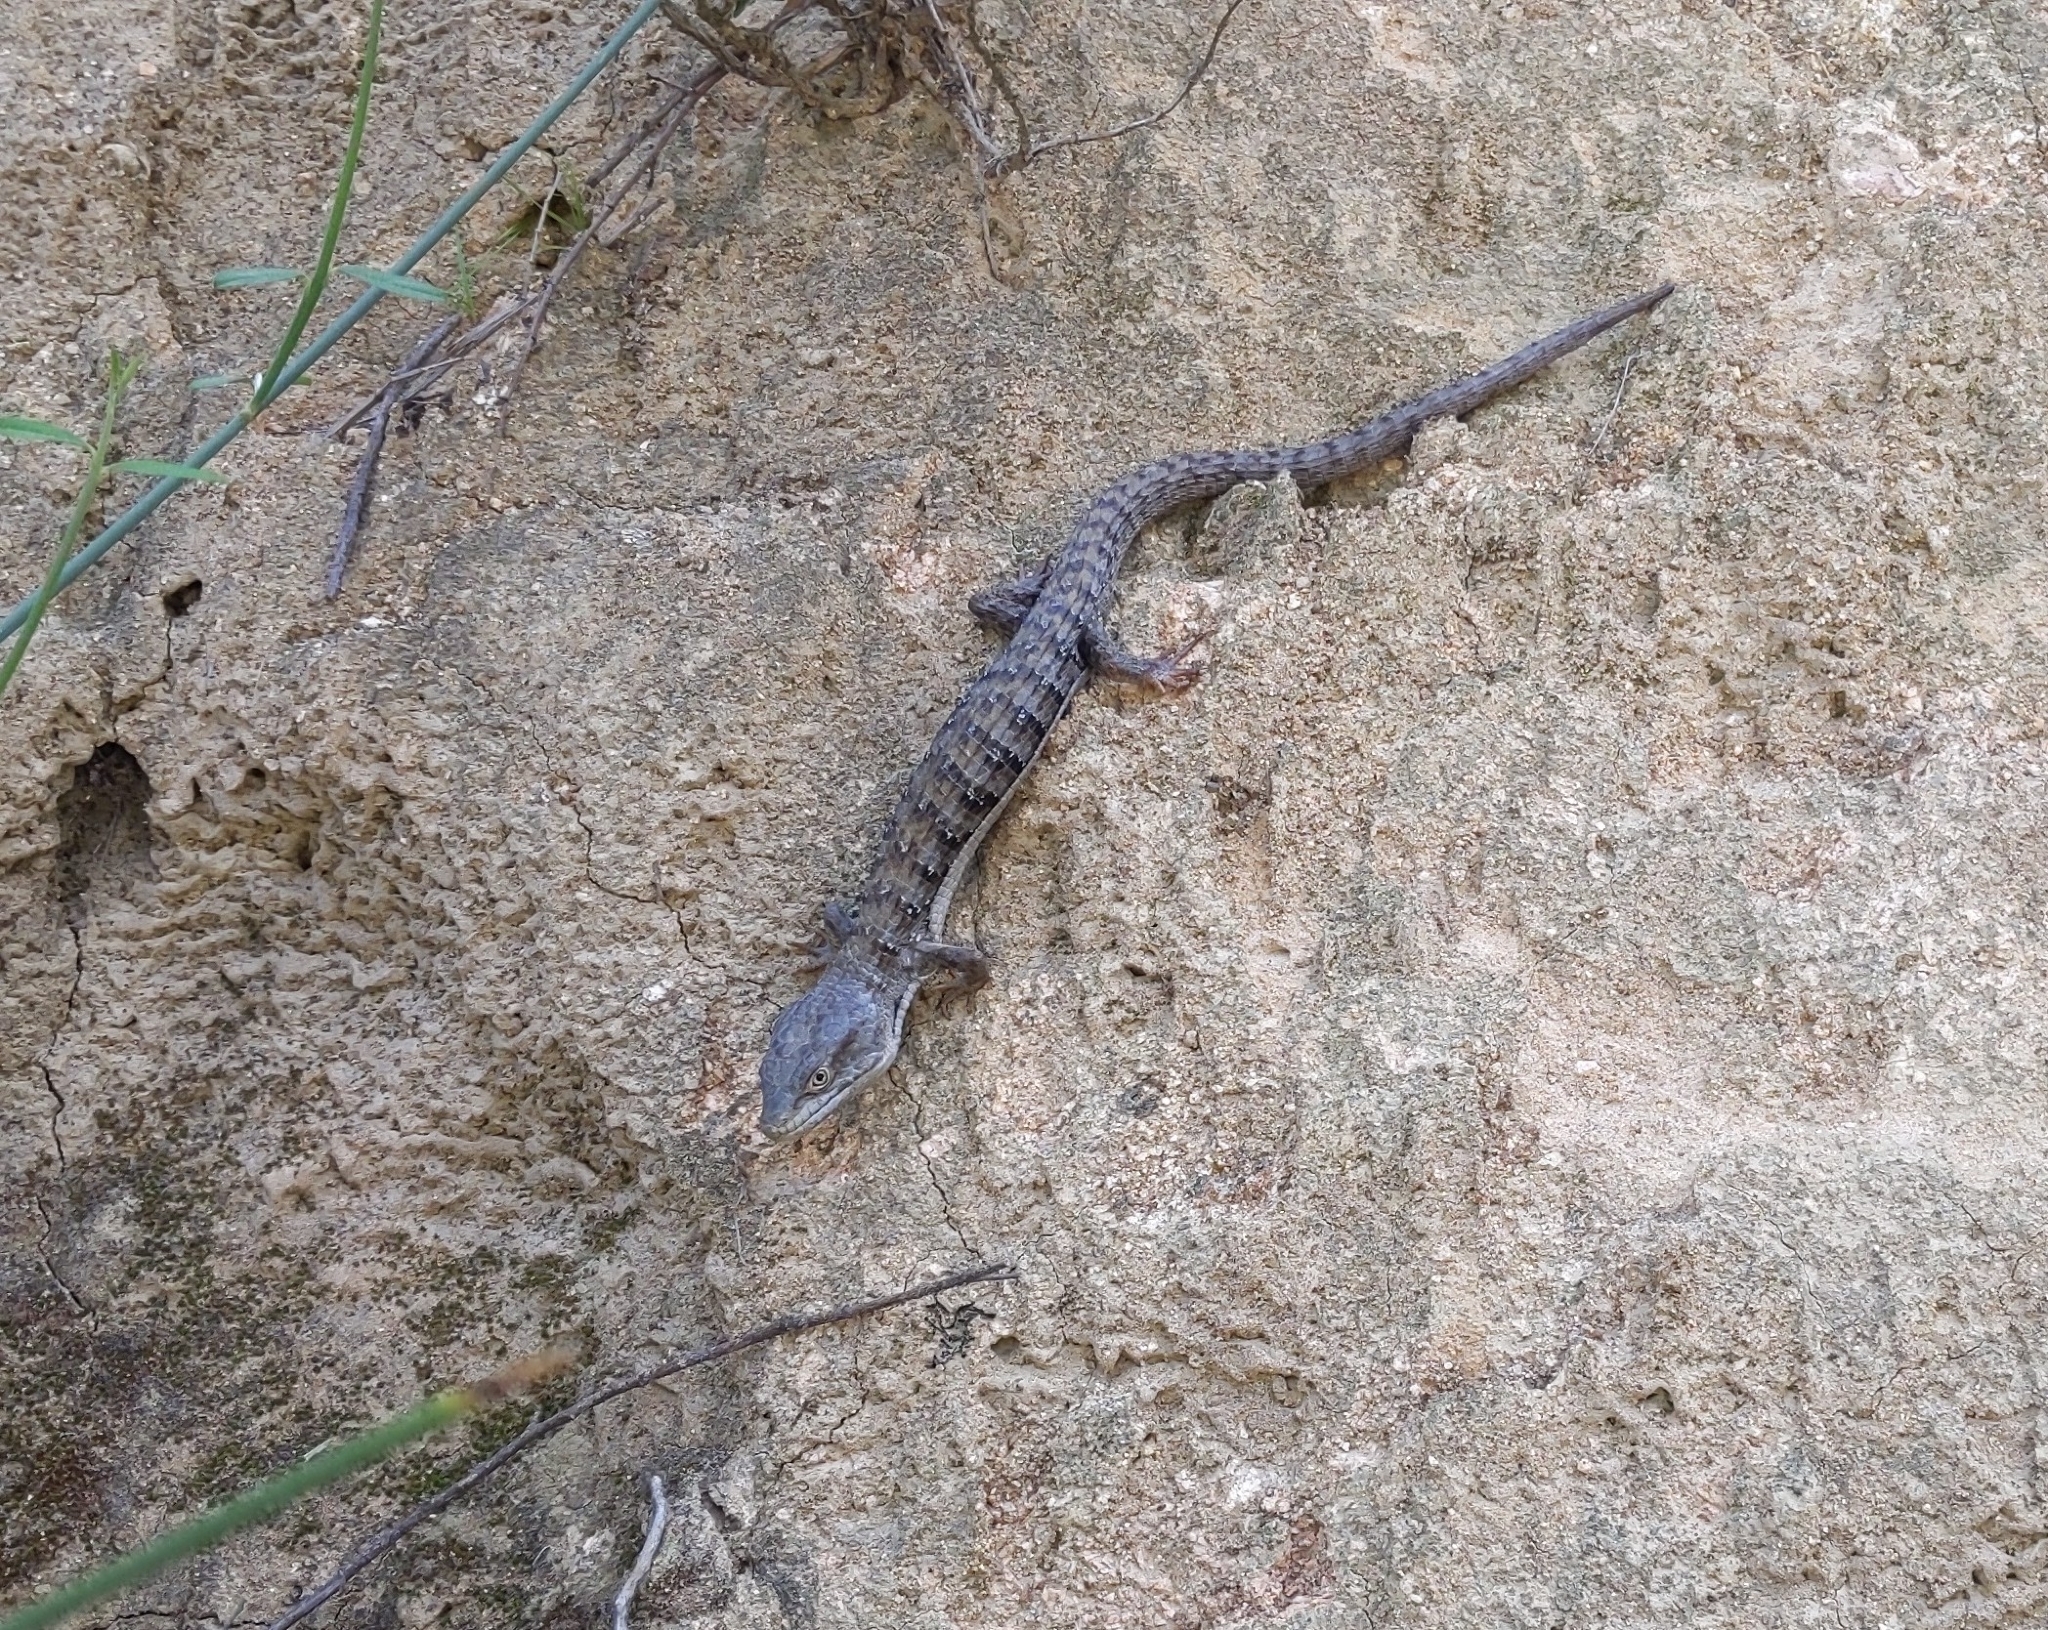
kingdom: Animalia
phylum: Chordata
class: Squamata
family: Anguidae
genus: Elgaria
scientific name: Elgaria multicarinata
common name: Southern alligator lizard
